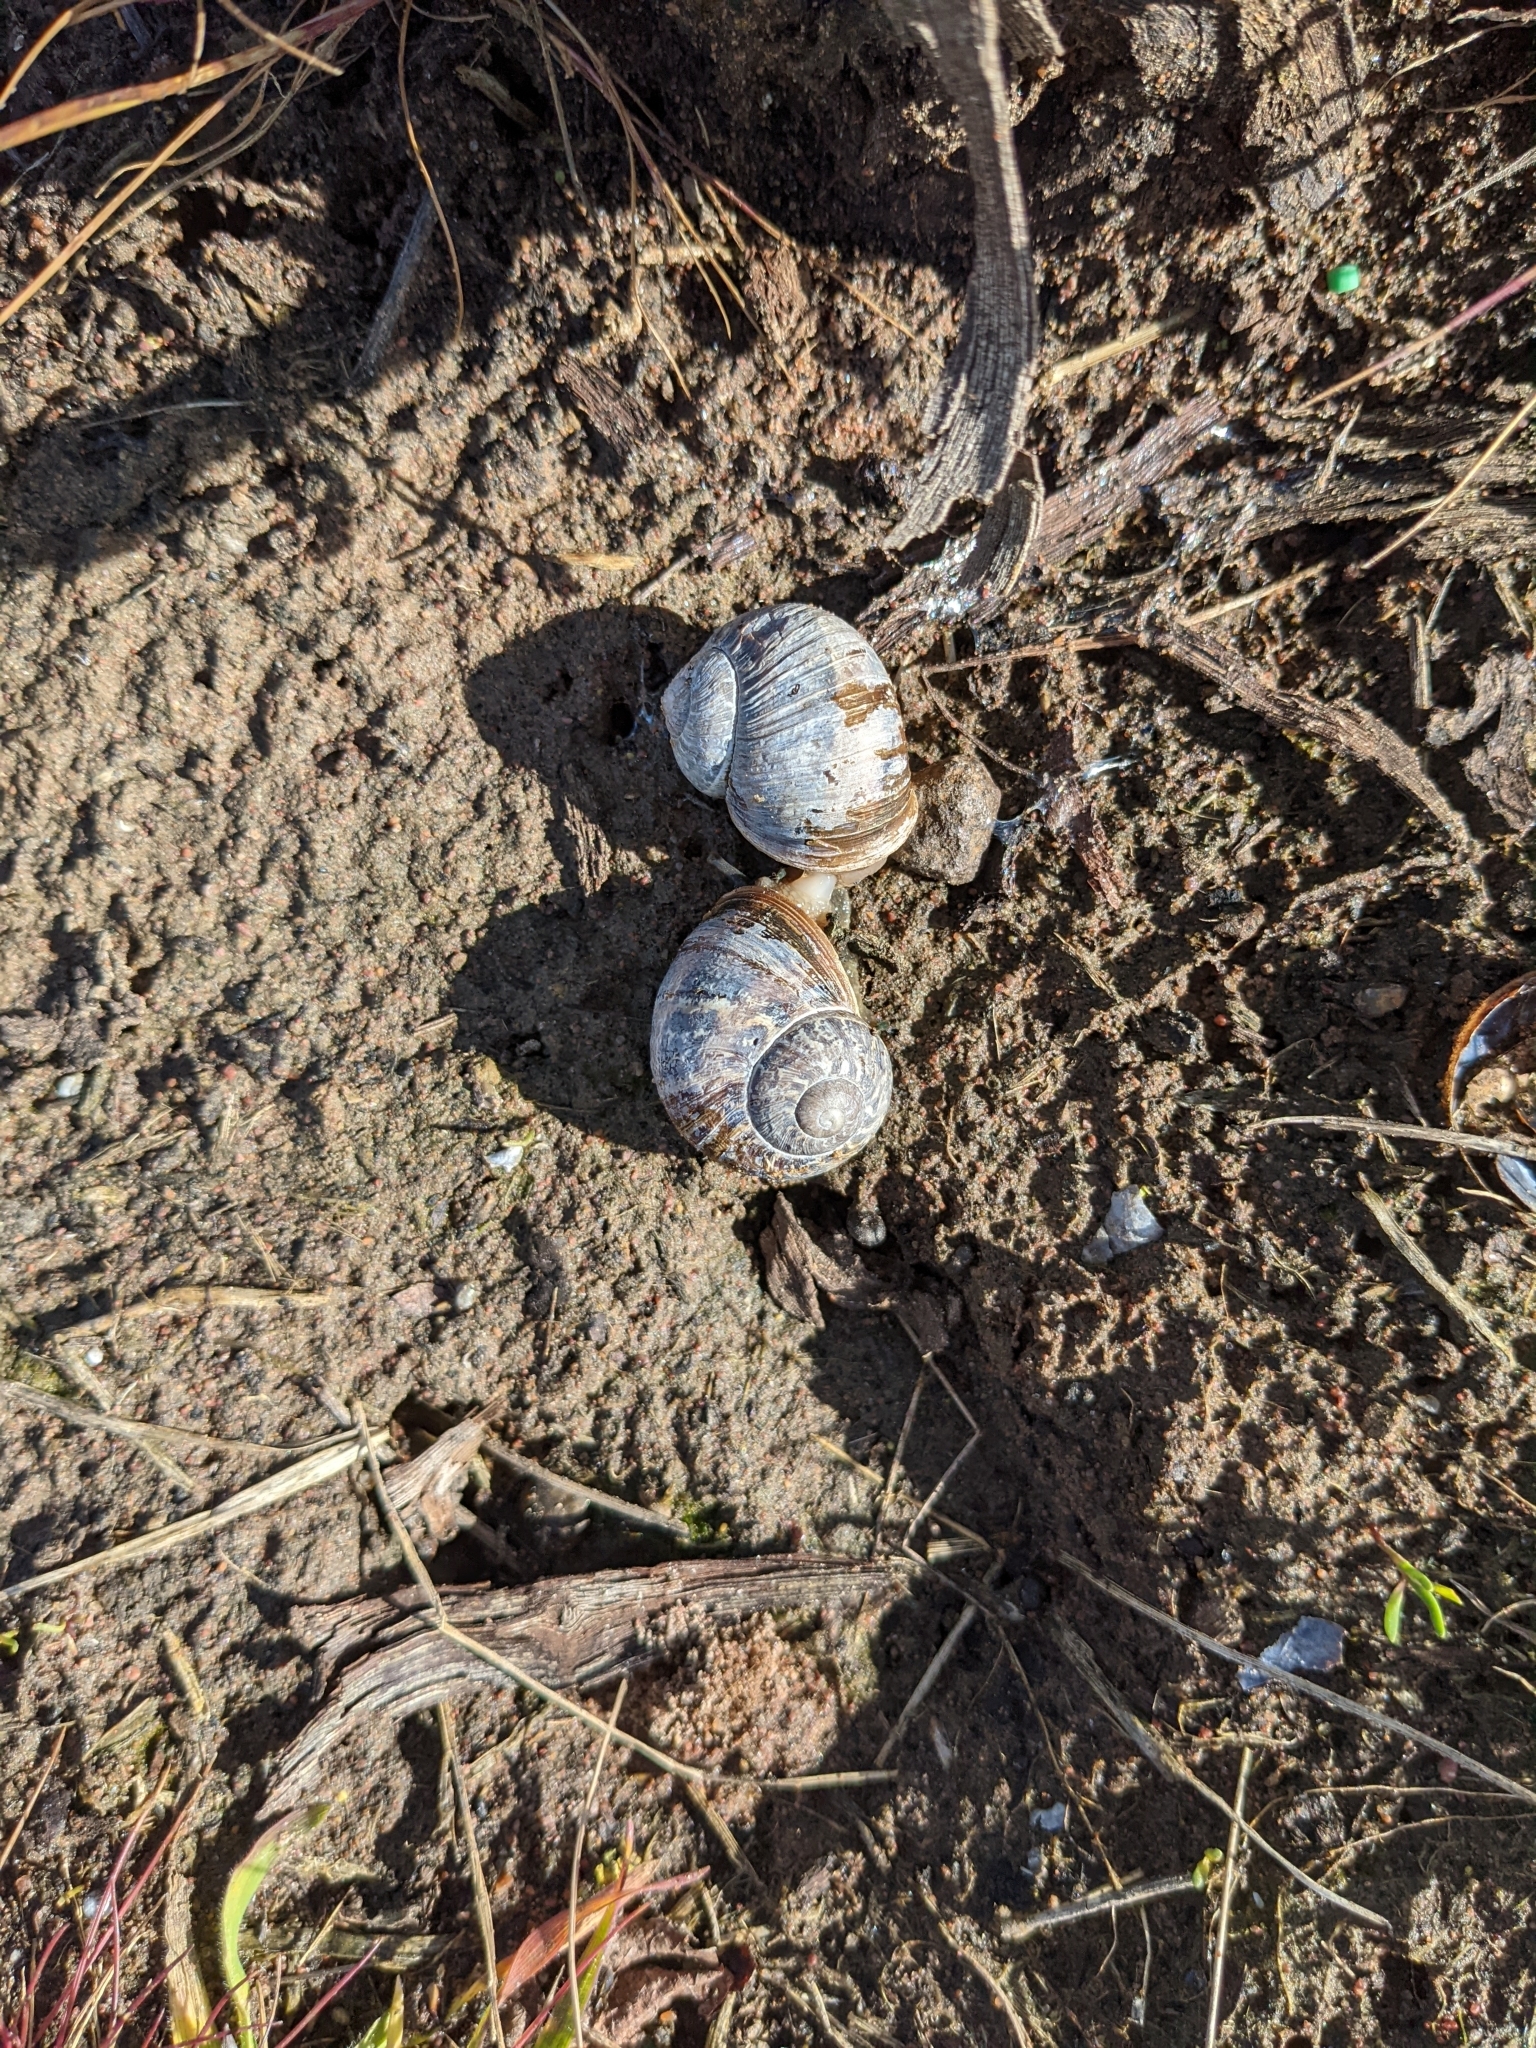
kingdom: Animalia
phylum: Mollusca
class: Gastropoda
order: Stylommatophora
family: Helicidae
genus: Cornu
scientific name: Cornu aspersum
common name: Brown garden snail
